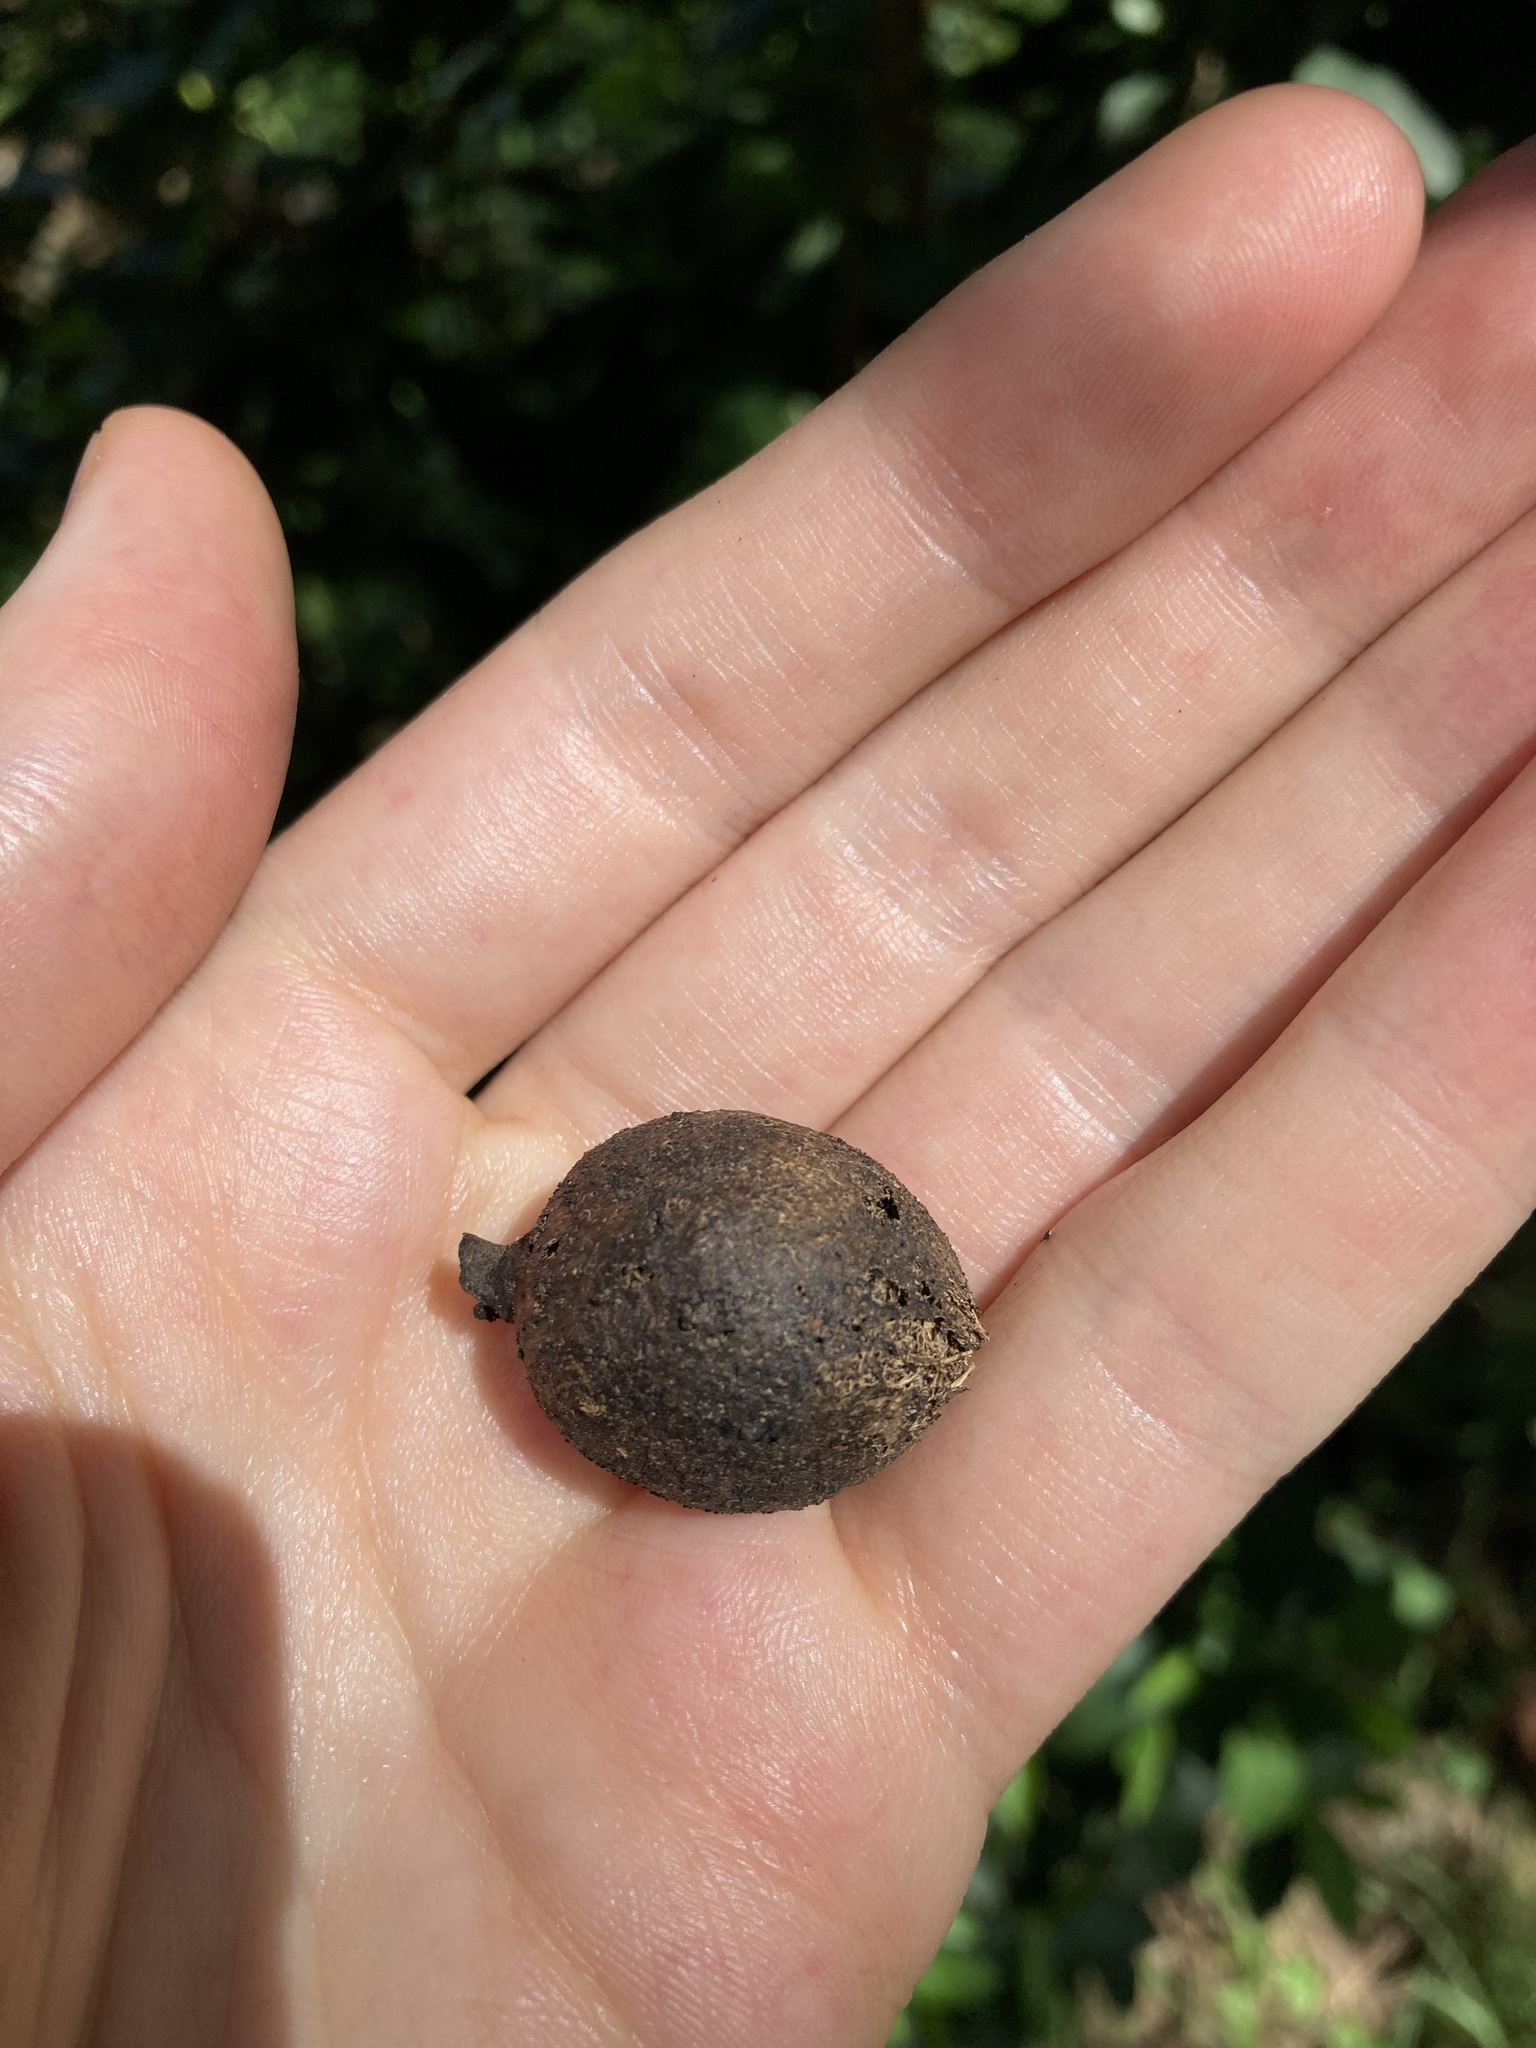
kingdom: Plantae
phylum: Tracheophyta
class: Magnoliopsida
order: Gentianales
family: Rubiaceae
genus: Rothmannia
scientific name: Rothmannia globosa
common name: September bells
